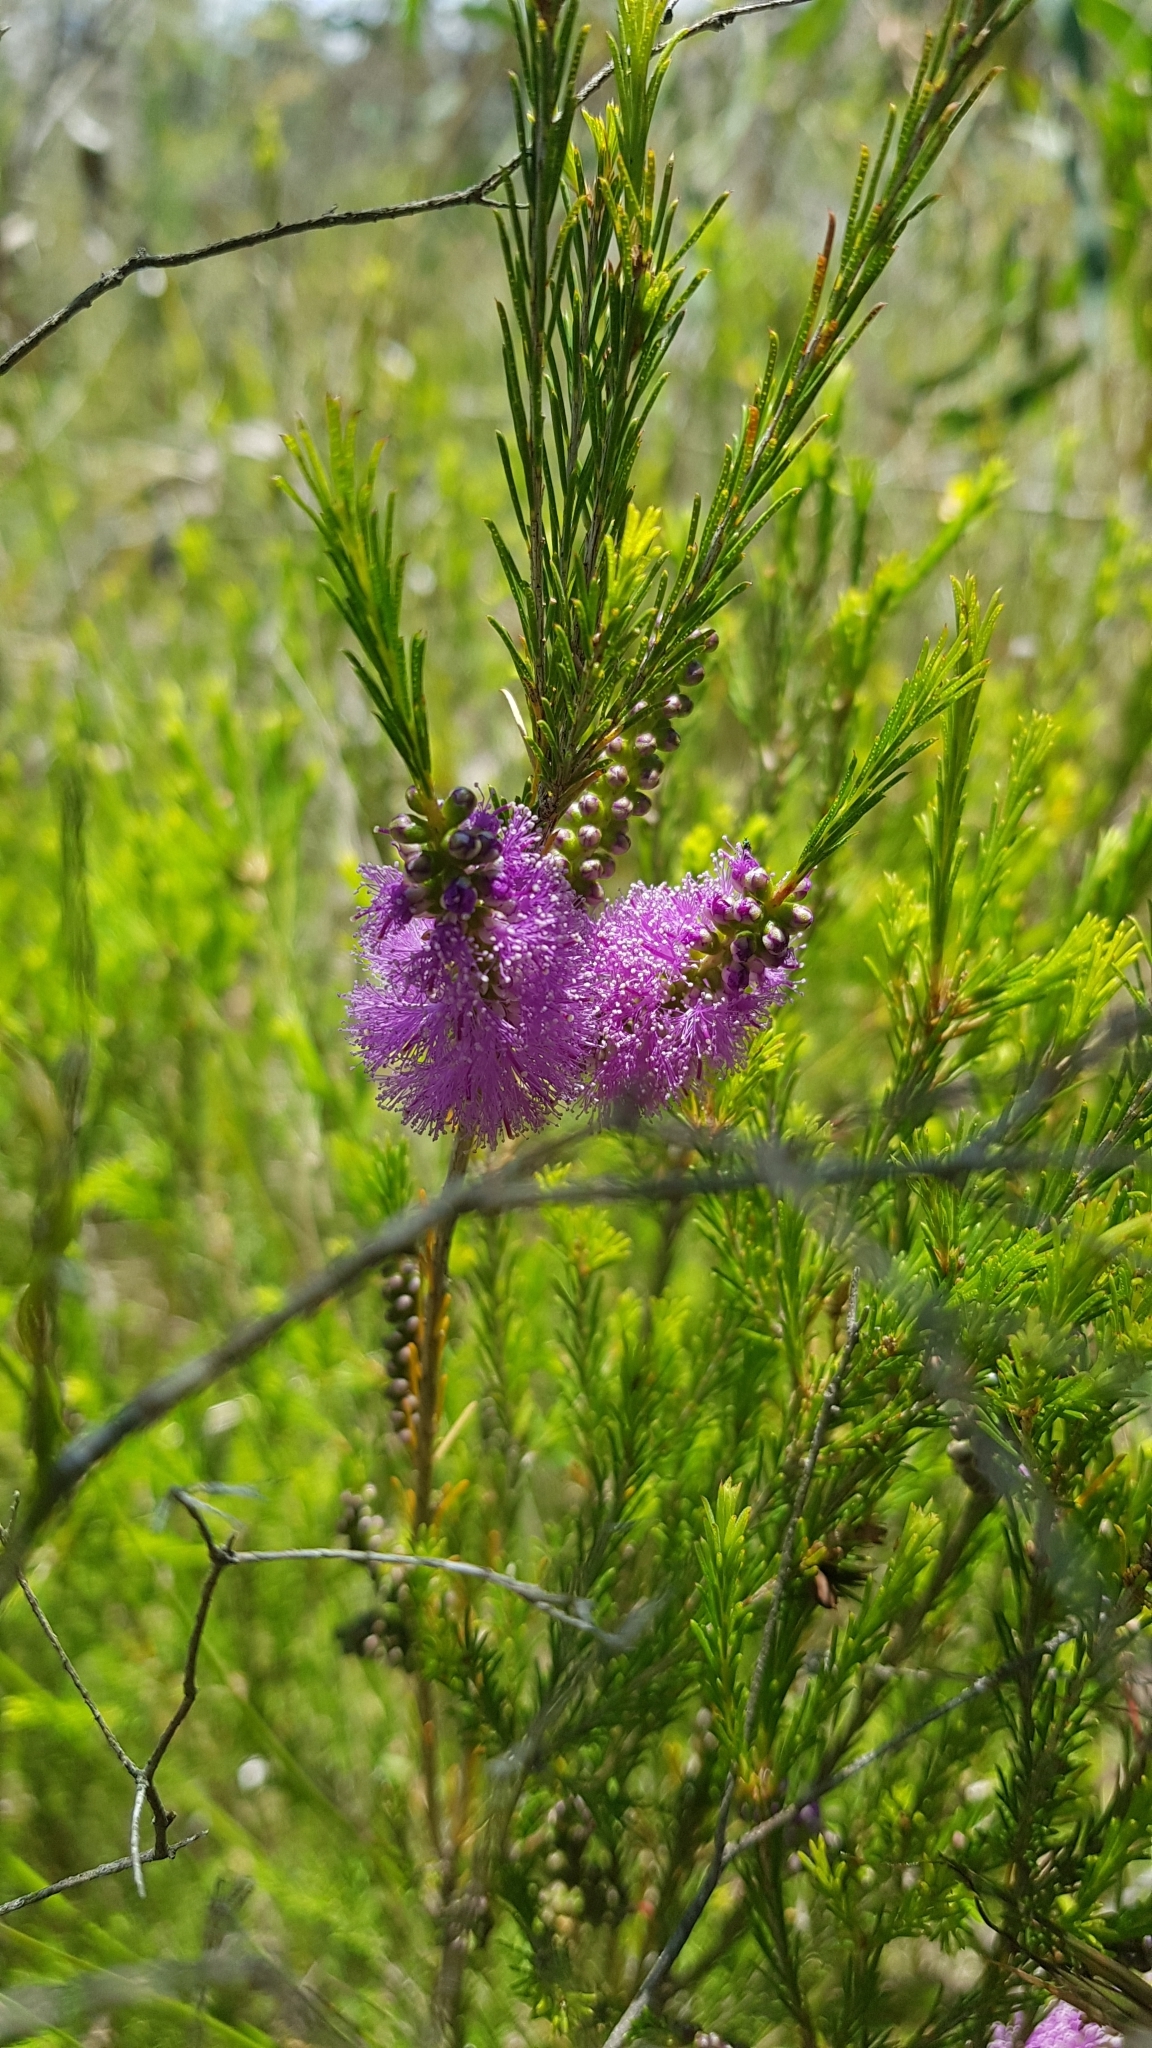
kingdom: Plantae
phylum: Tracheophyta
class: Magnoliopsida
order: Myrtales
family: Myrtaceae
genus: Melaleuca
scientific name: Melaleuca diosmatifolia
